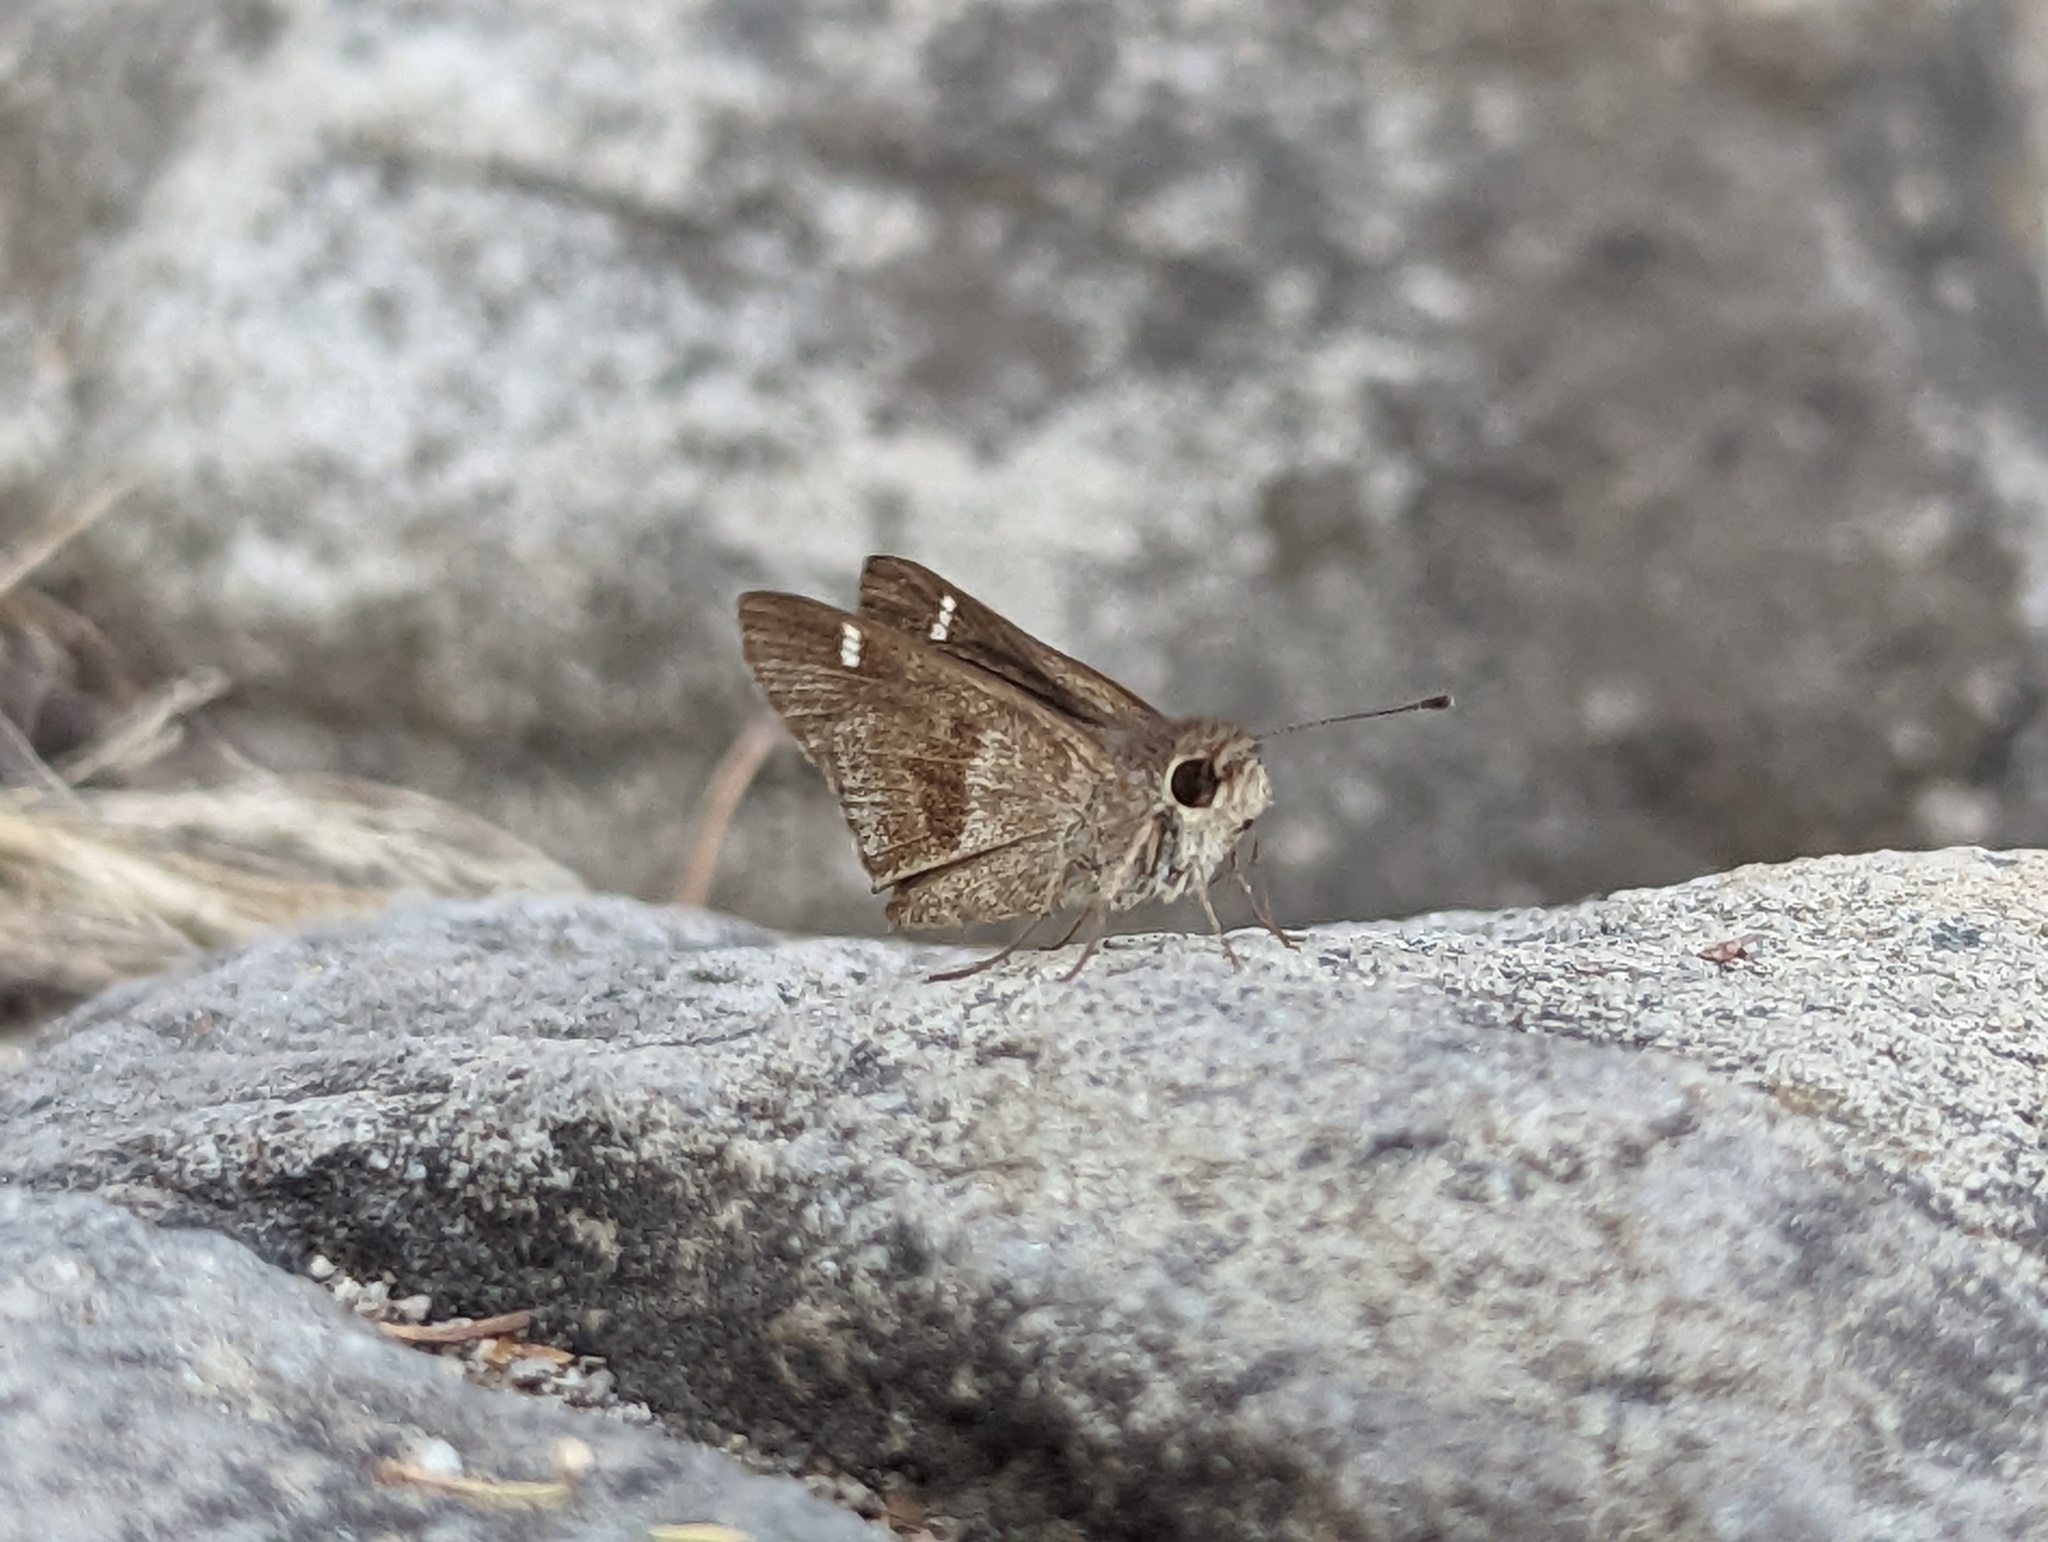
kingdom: Animalia
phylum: Arthropoda
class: Insecta
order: Lepidoptera
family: Hesperiidae
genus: Lerodea
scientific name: Lerodea arabus
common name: Violet-clouded skipper
